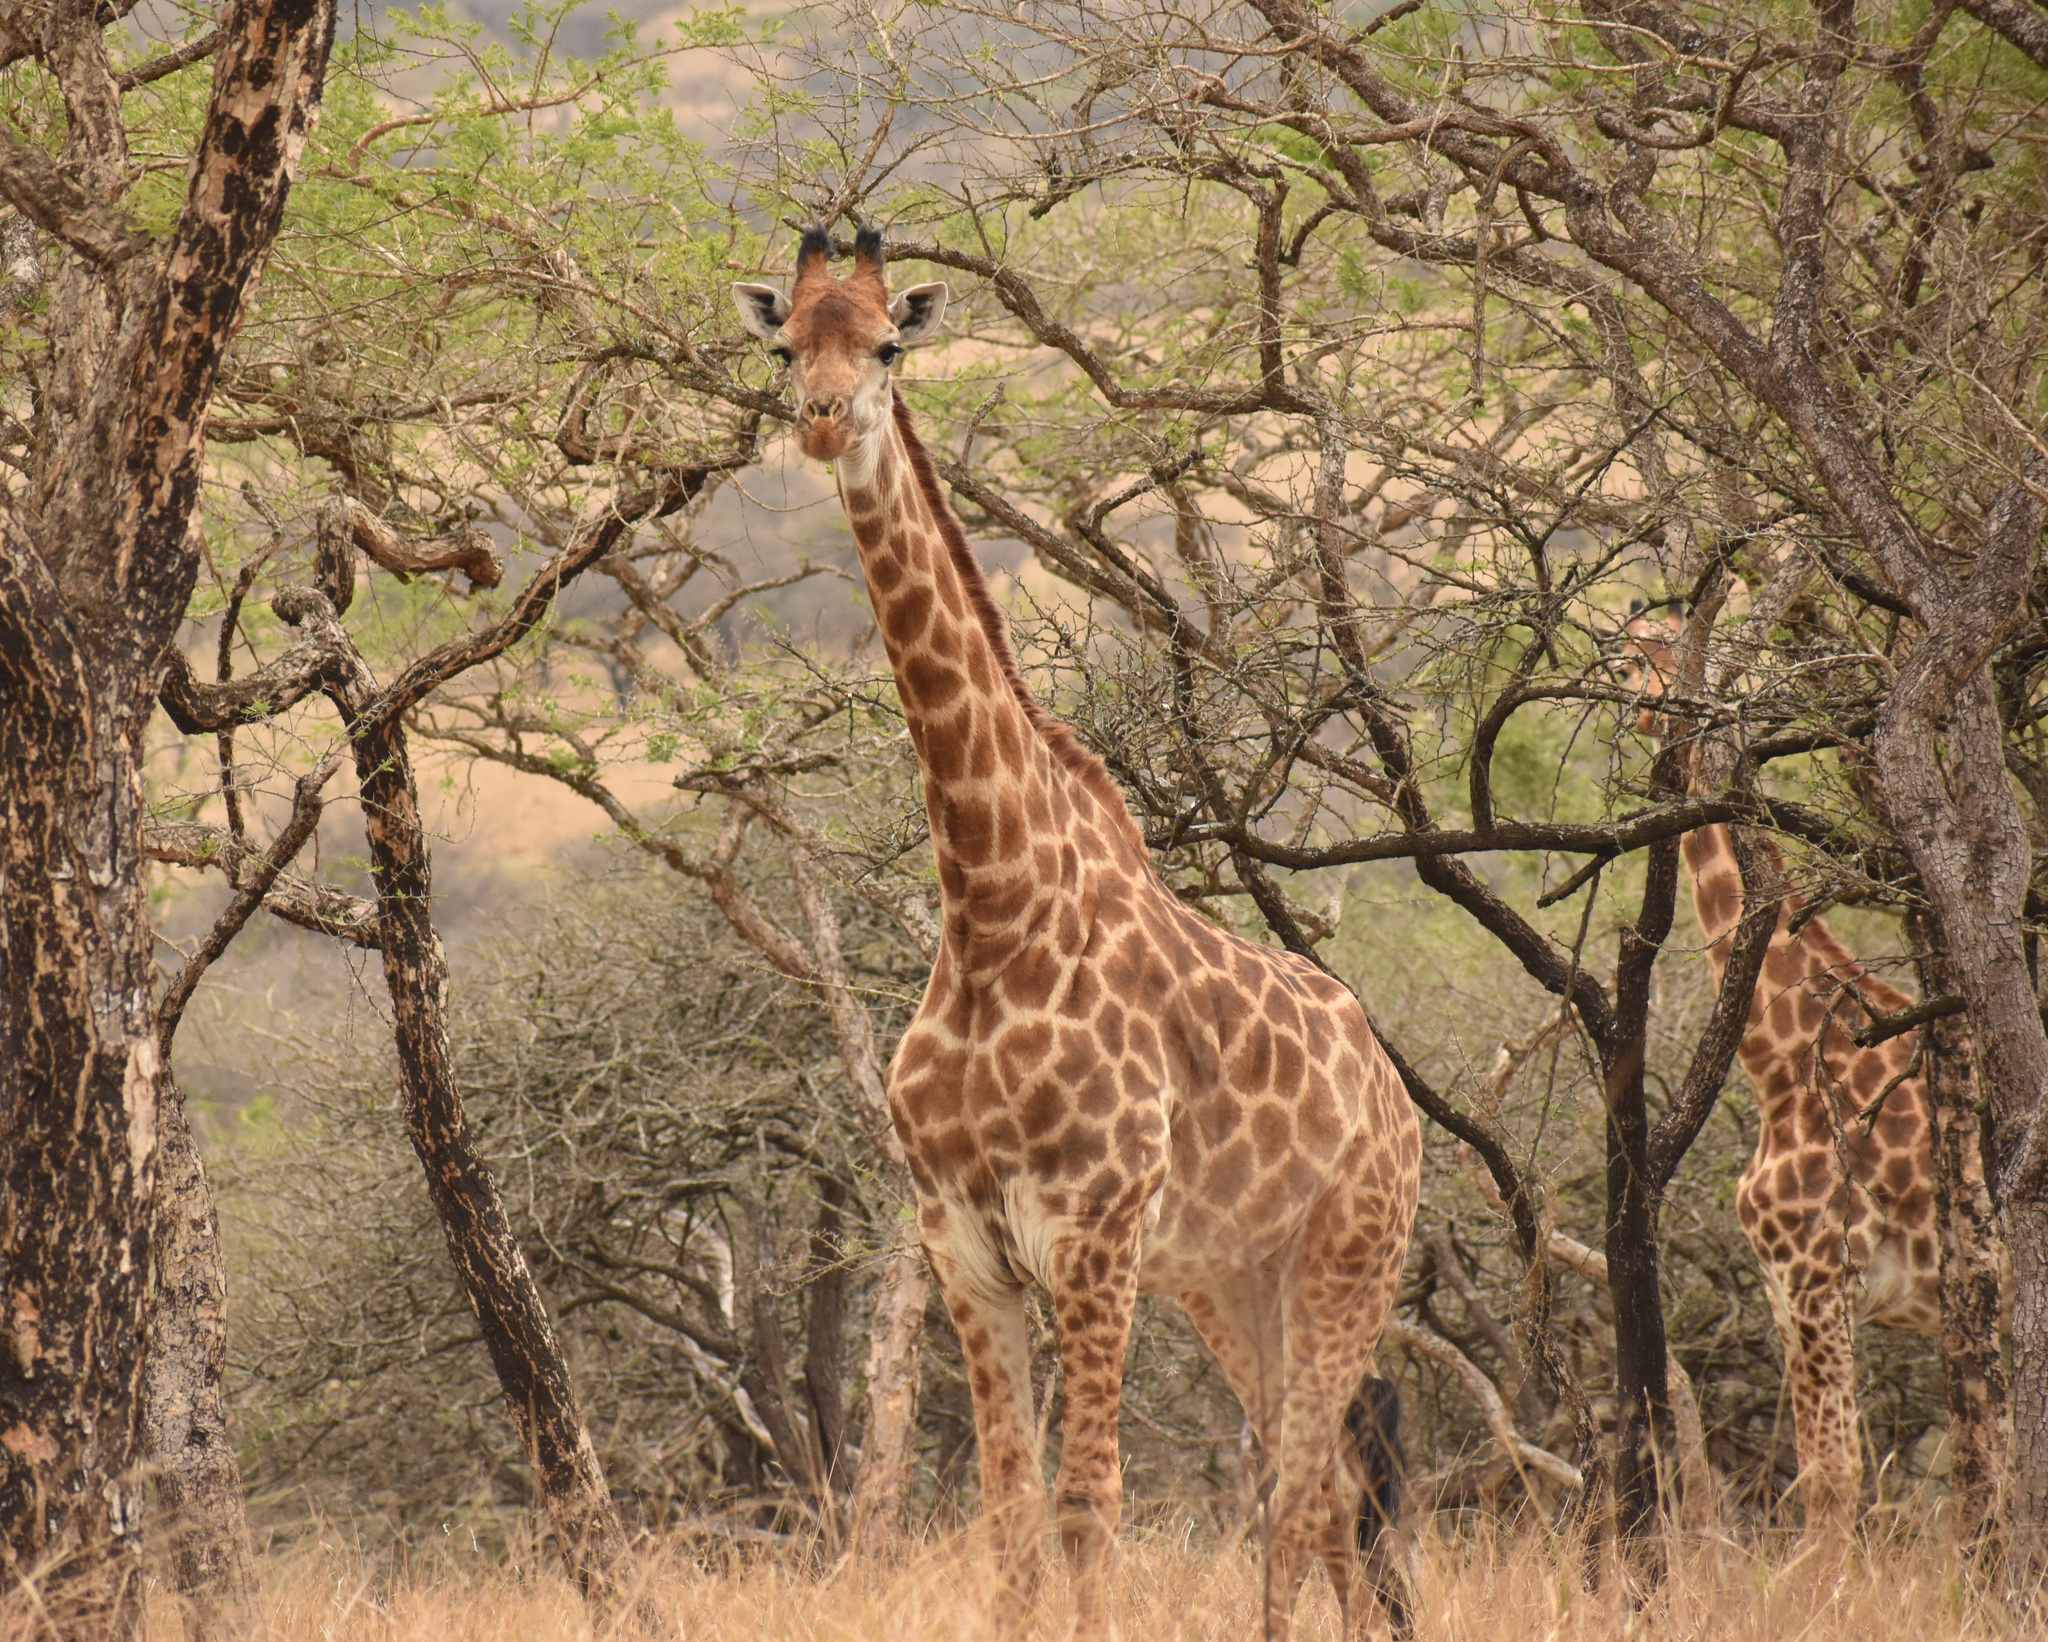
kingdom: Animalia
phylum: Chordata
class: Mammalia
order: Artiodactyla
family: Giraffidae
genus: Giraffa
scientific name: Giraffa giraffa
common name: Southern giraffe
